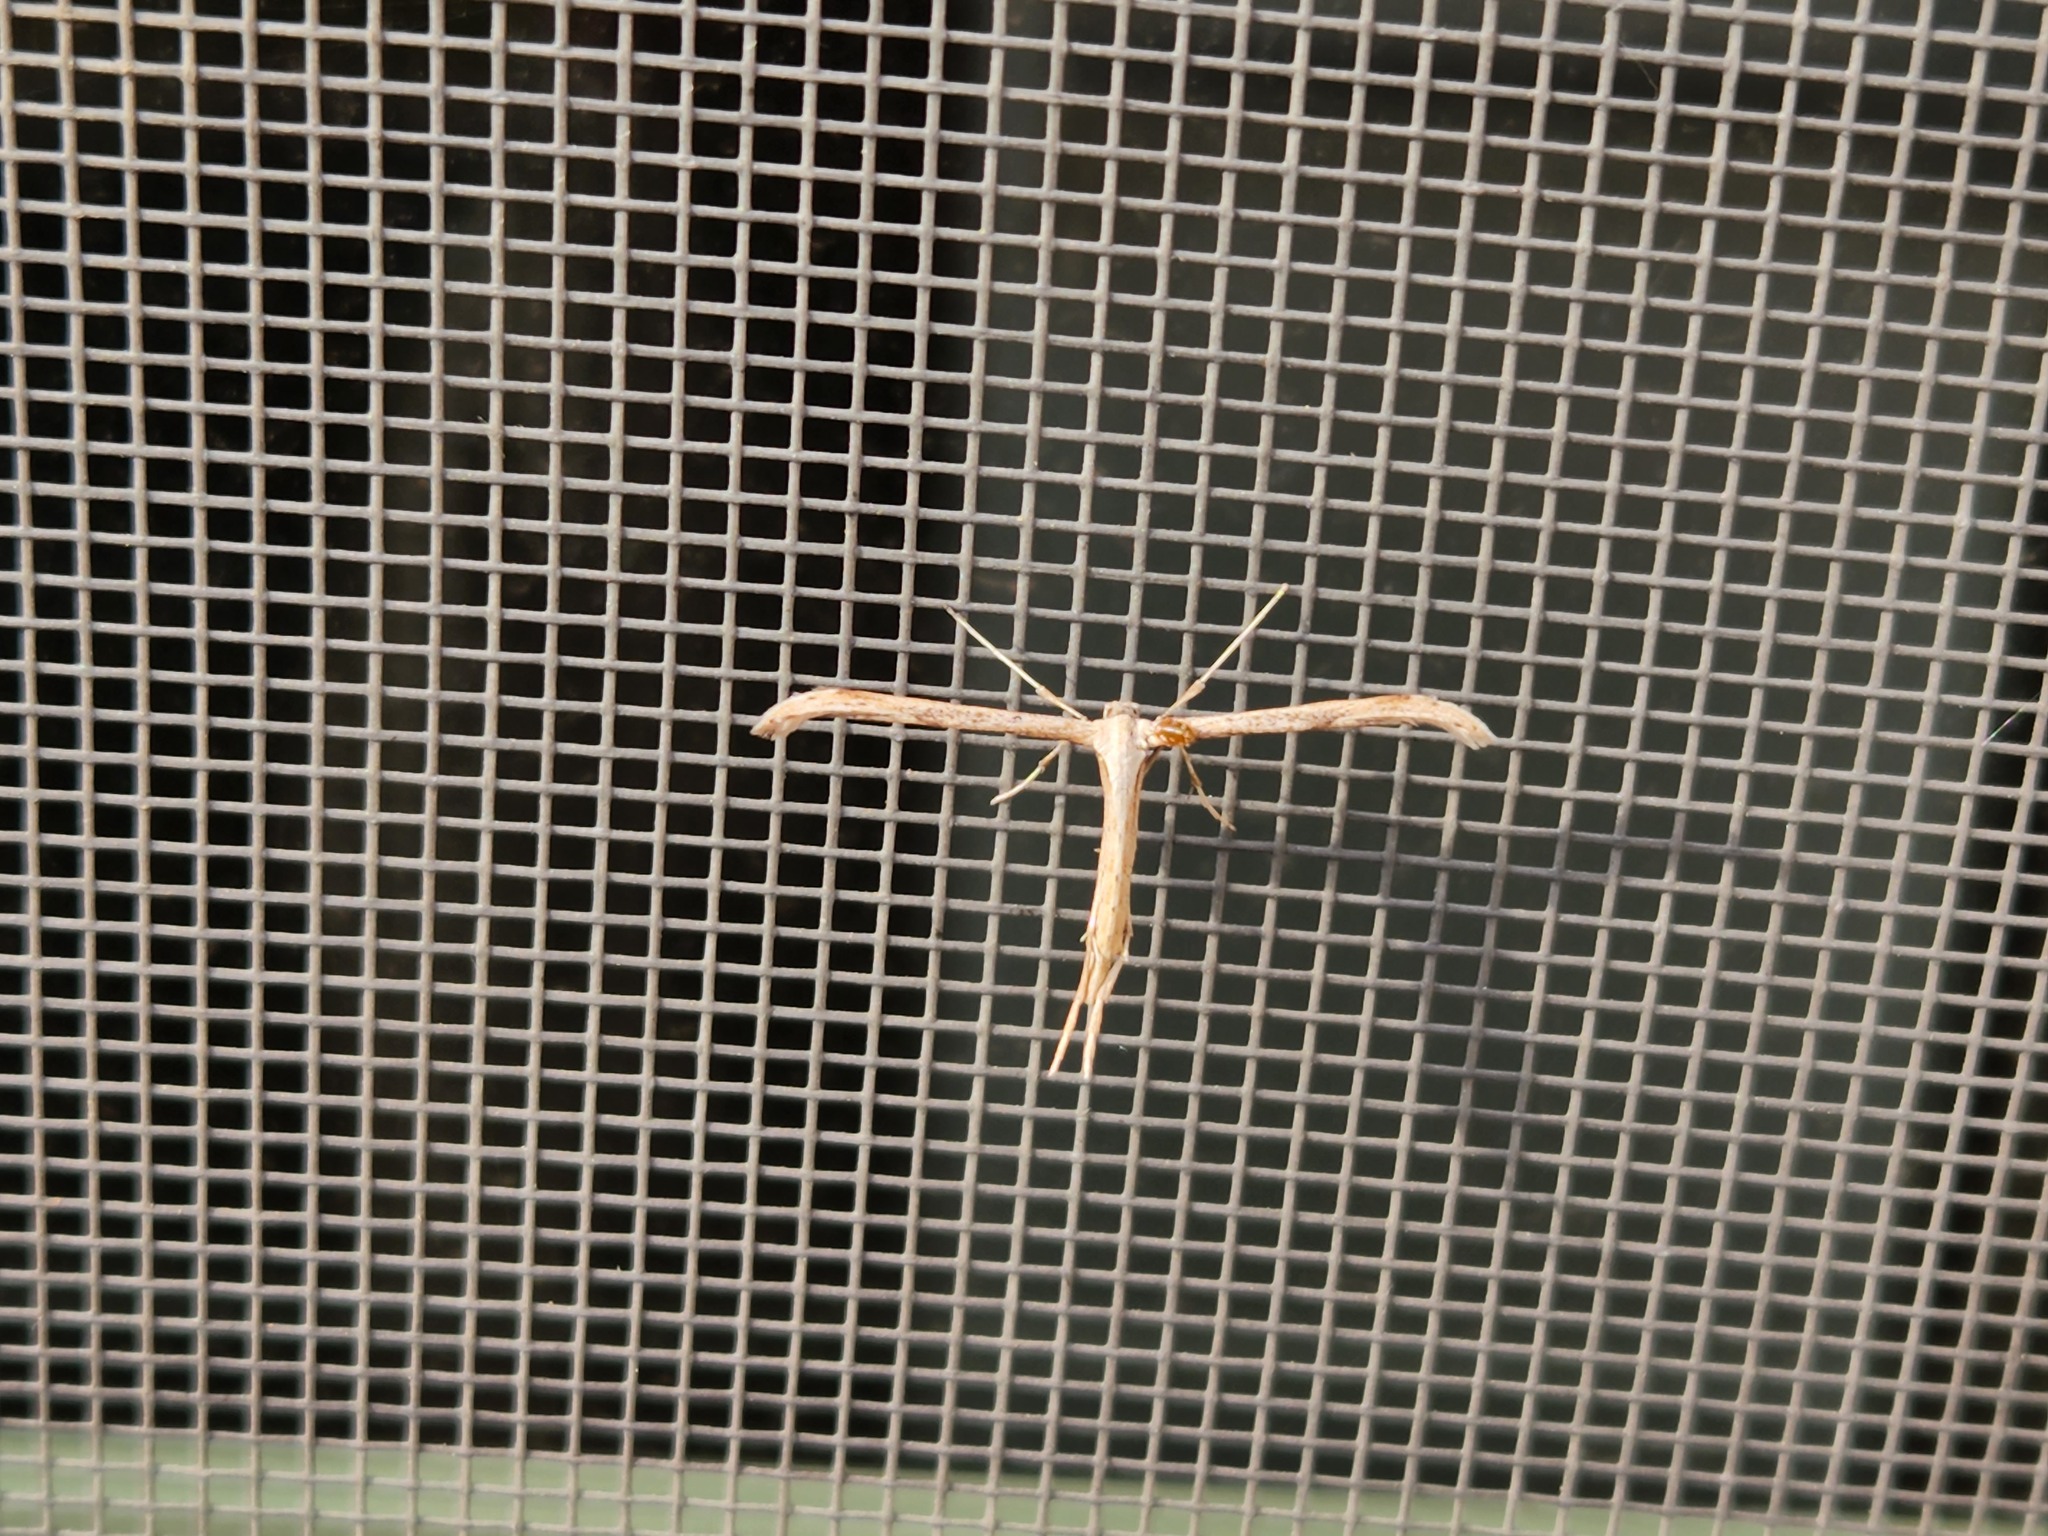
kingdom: Animalia
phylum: Arthropoda
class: Insecta
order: Lepidoptera
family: Pterophoridae
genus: Emmelina
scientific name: Emmelina monodactyla
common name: Common plume
